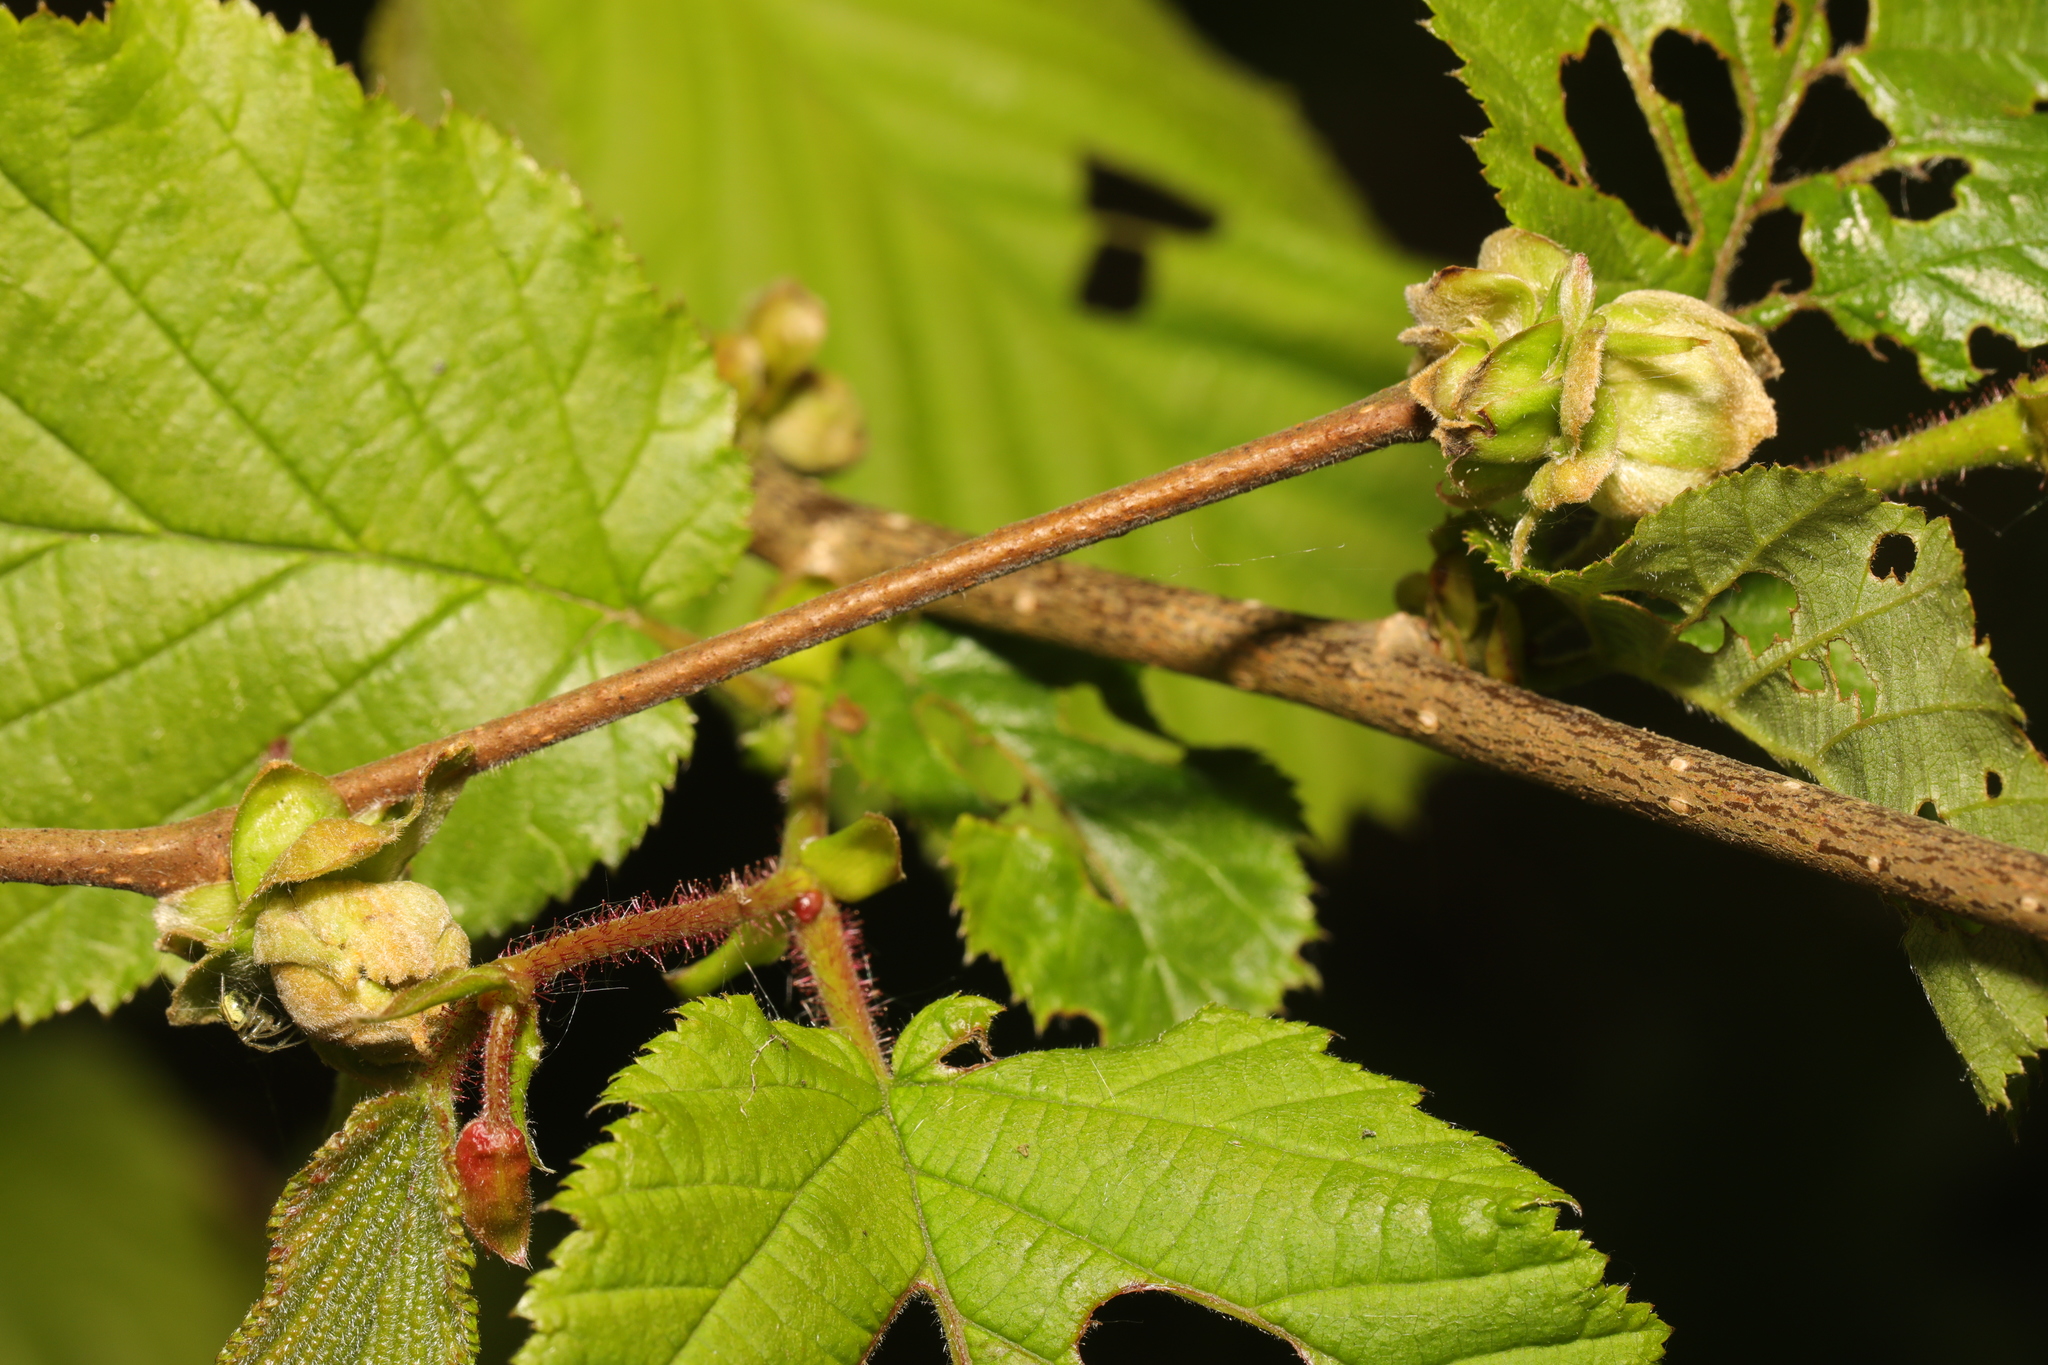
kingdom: Animalia
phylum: Arthropoda
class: Arachnida
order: Trombidiformes
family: Phytoptidae
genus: Phytoptus
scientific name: Phytoptus avellanae
